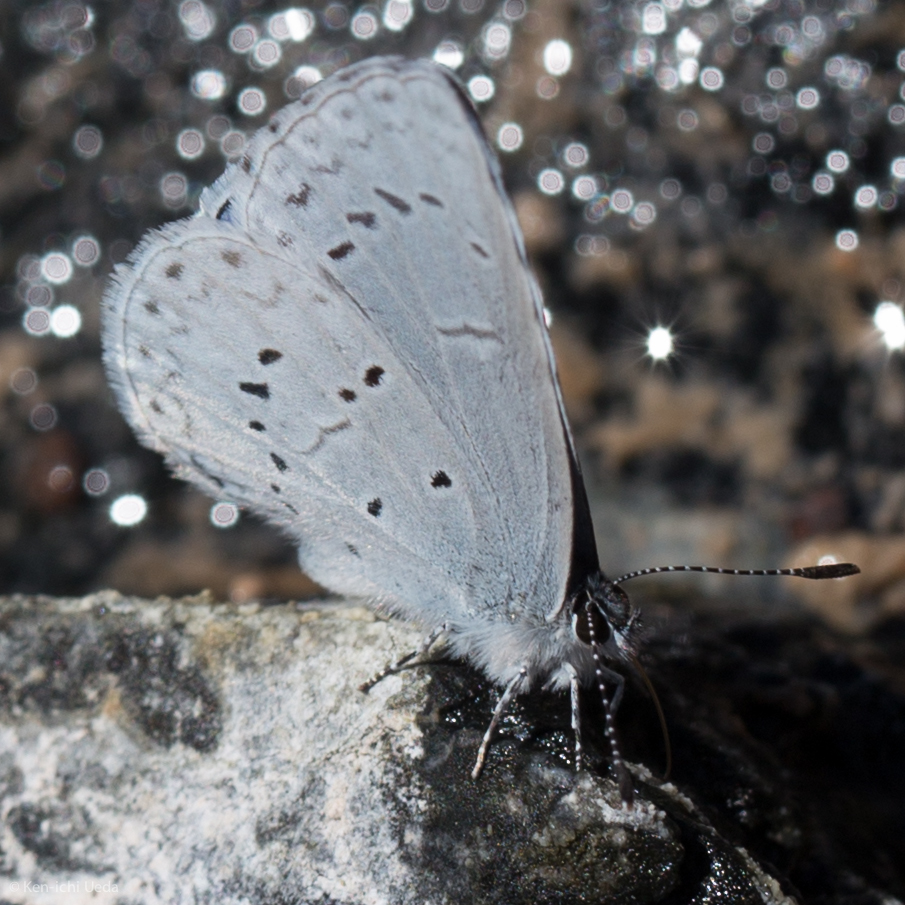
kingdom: Animalia
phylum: Arthropoda
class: Insecta
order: Lepidoptera
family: Lycaenidae
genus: Celastrina
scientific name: Celastrina ladon
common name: Spring azure
